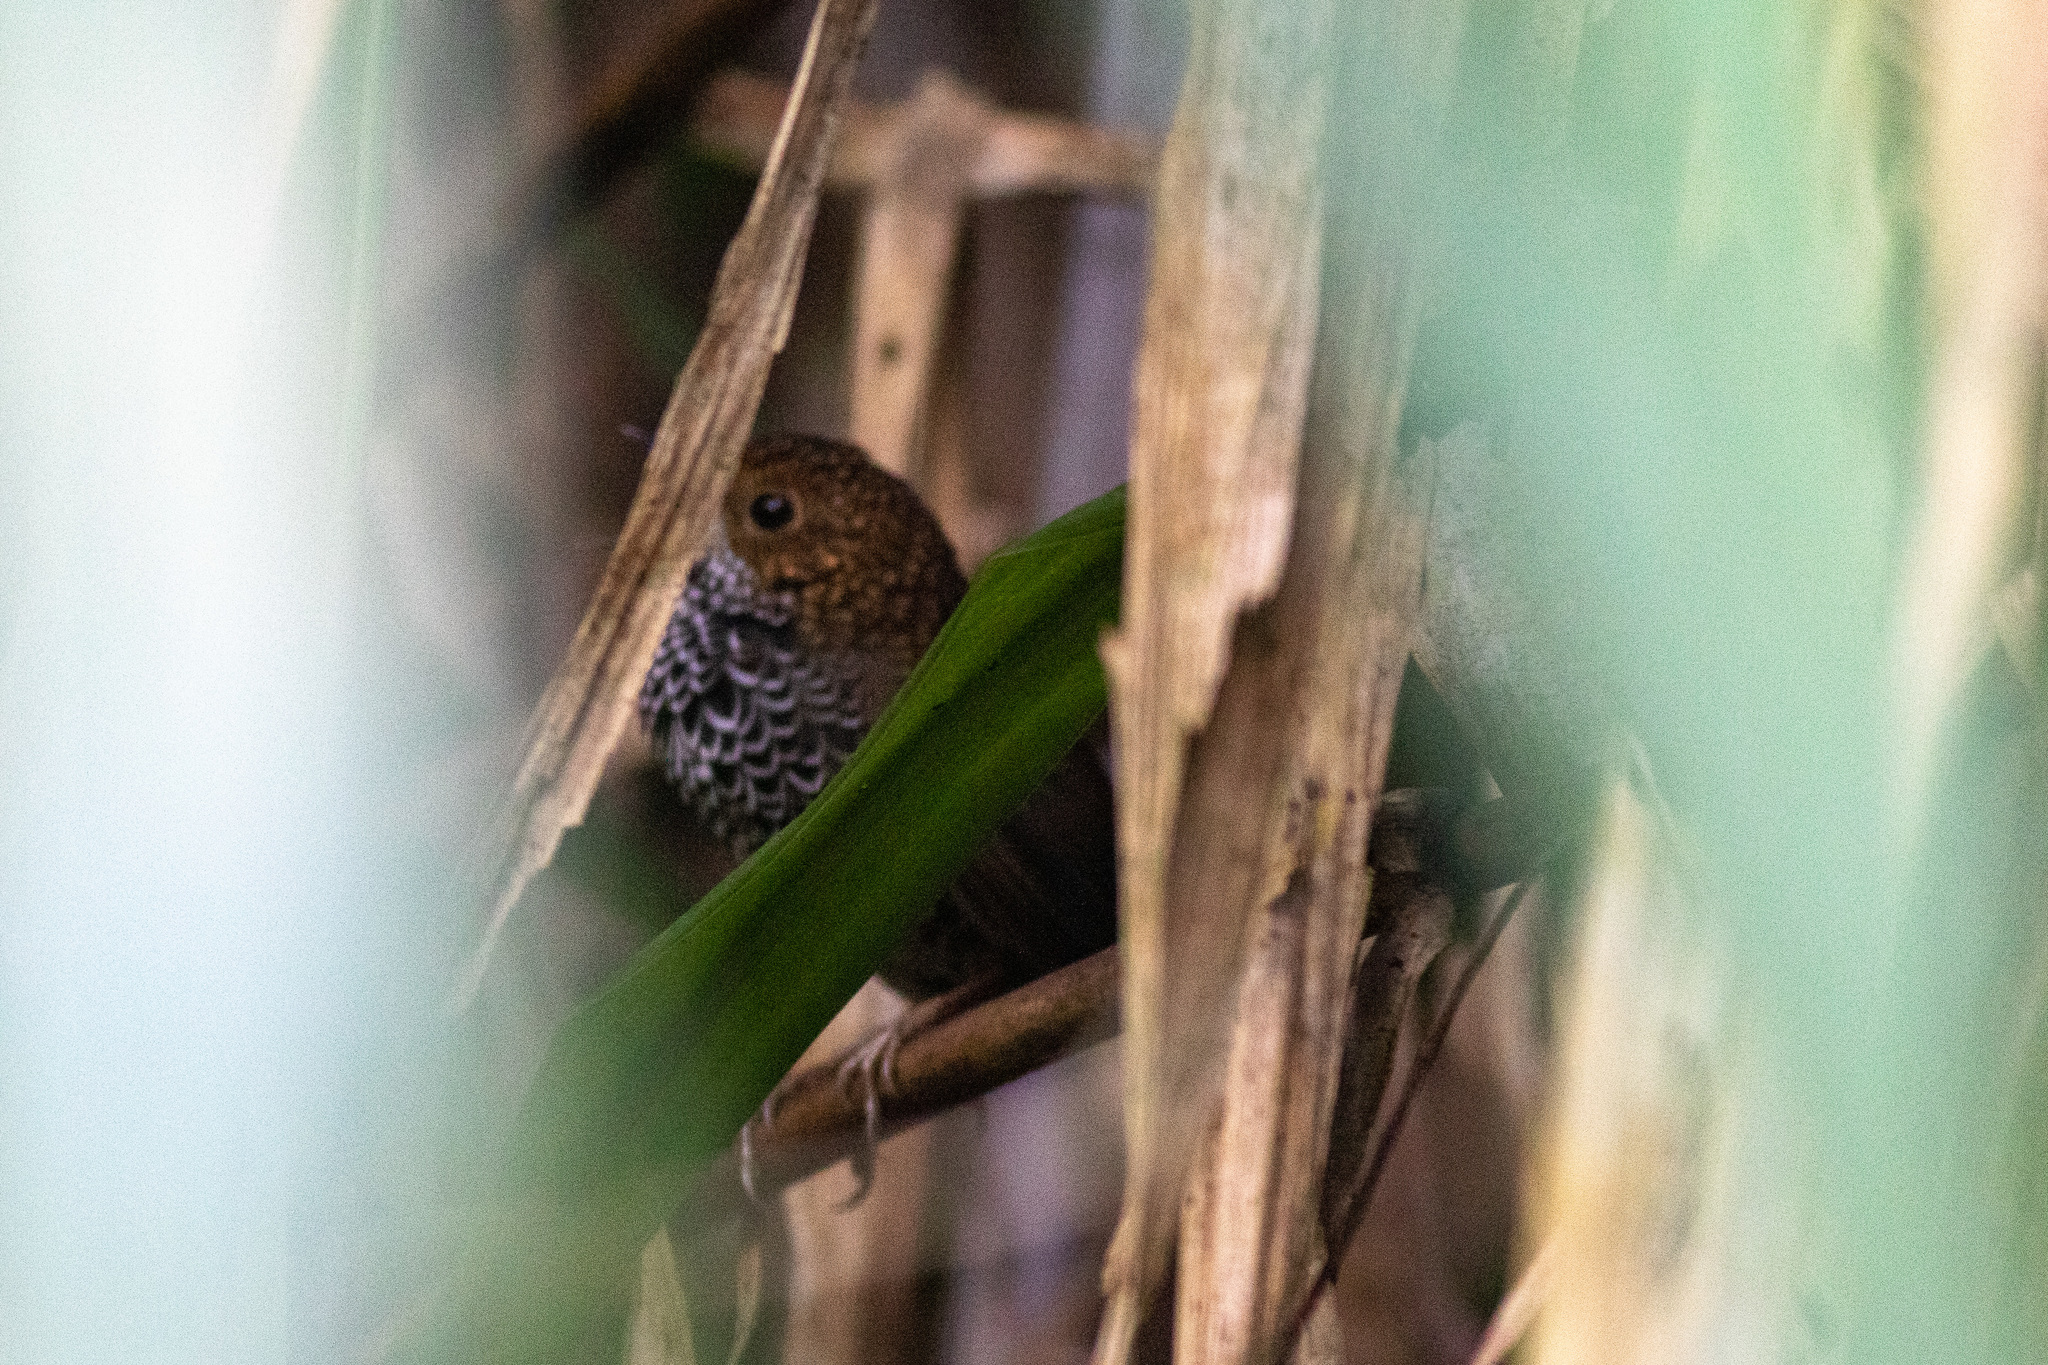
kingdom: Animalia
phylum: Chordata
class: Aves
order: Passeriformes
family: Pnoepygidae
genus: Pnoepyga
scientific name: Pnoepyga formosana
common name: Taiwan cupwing
